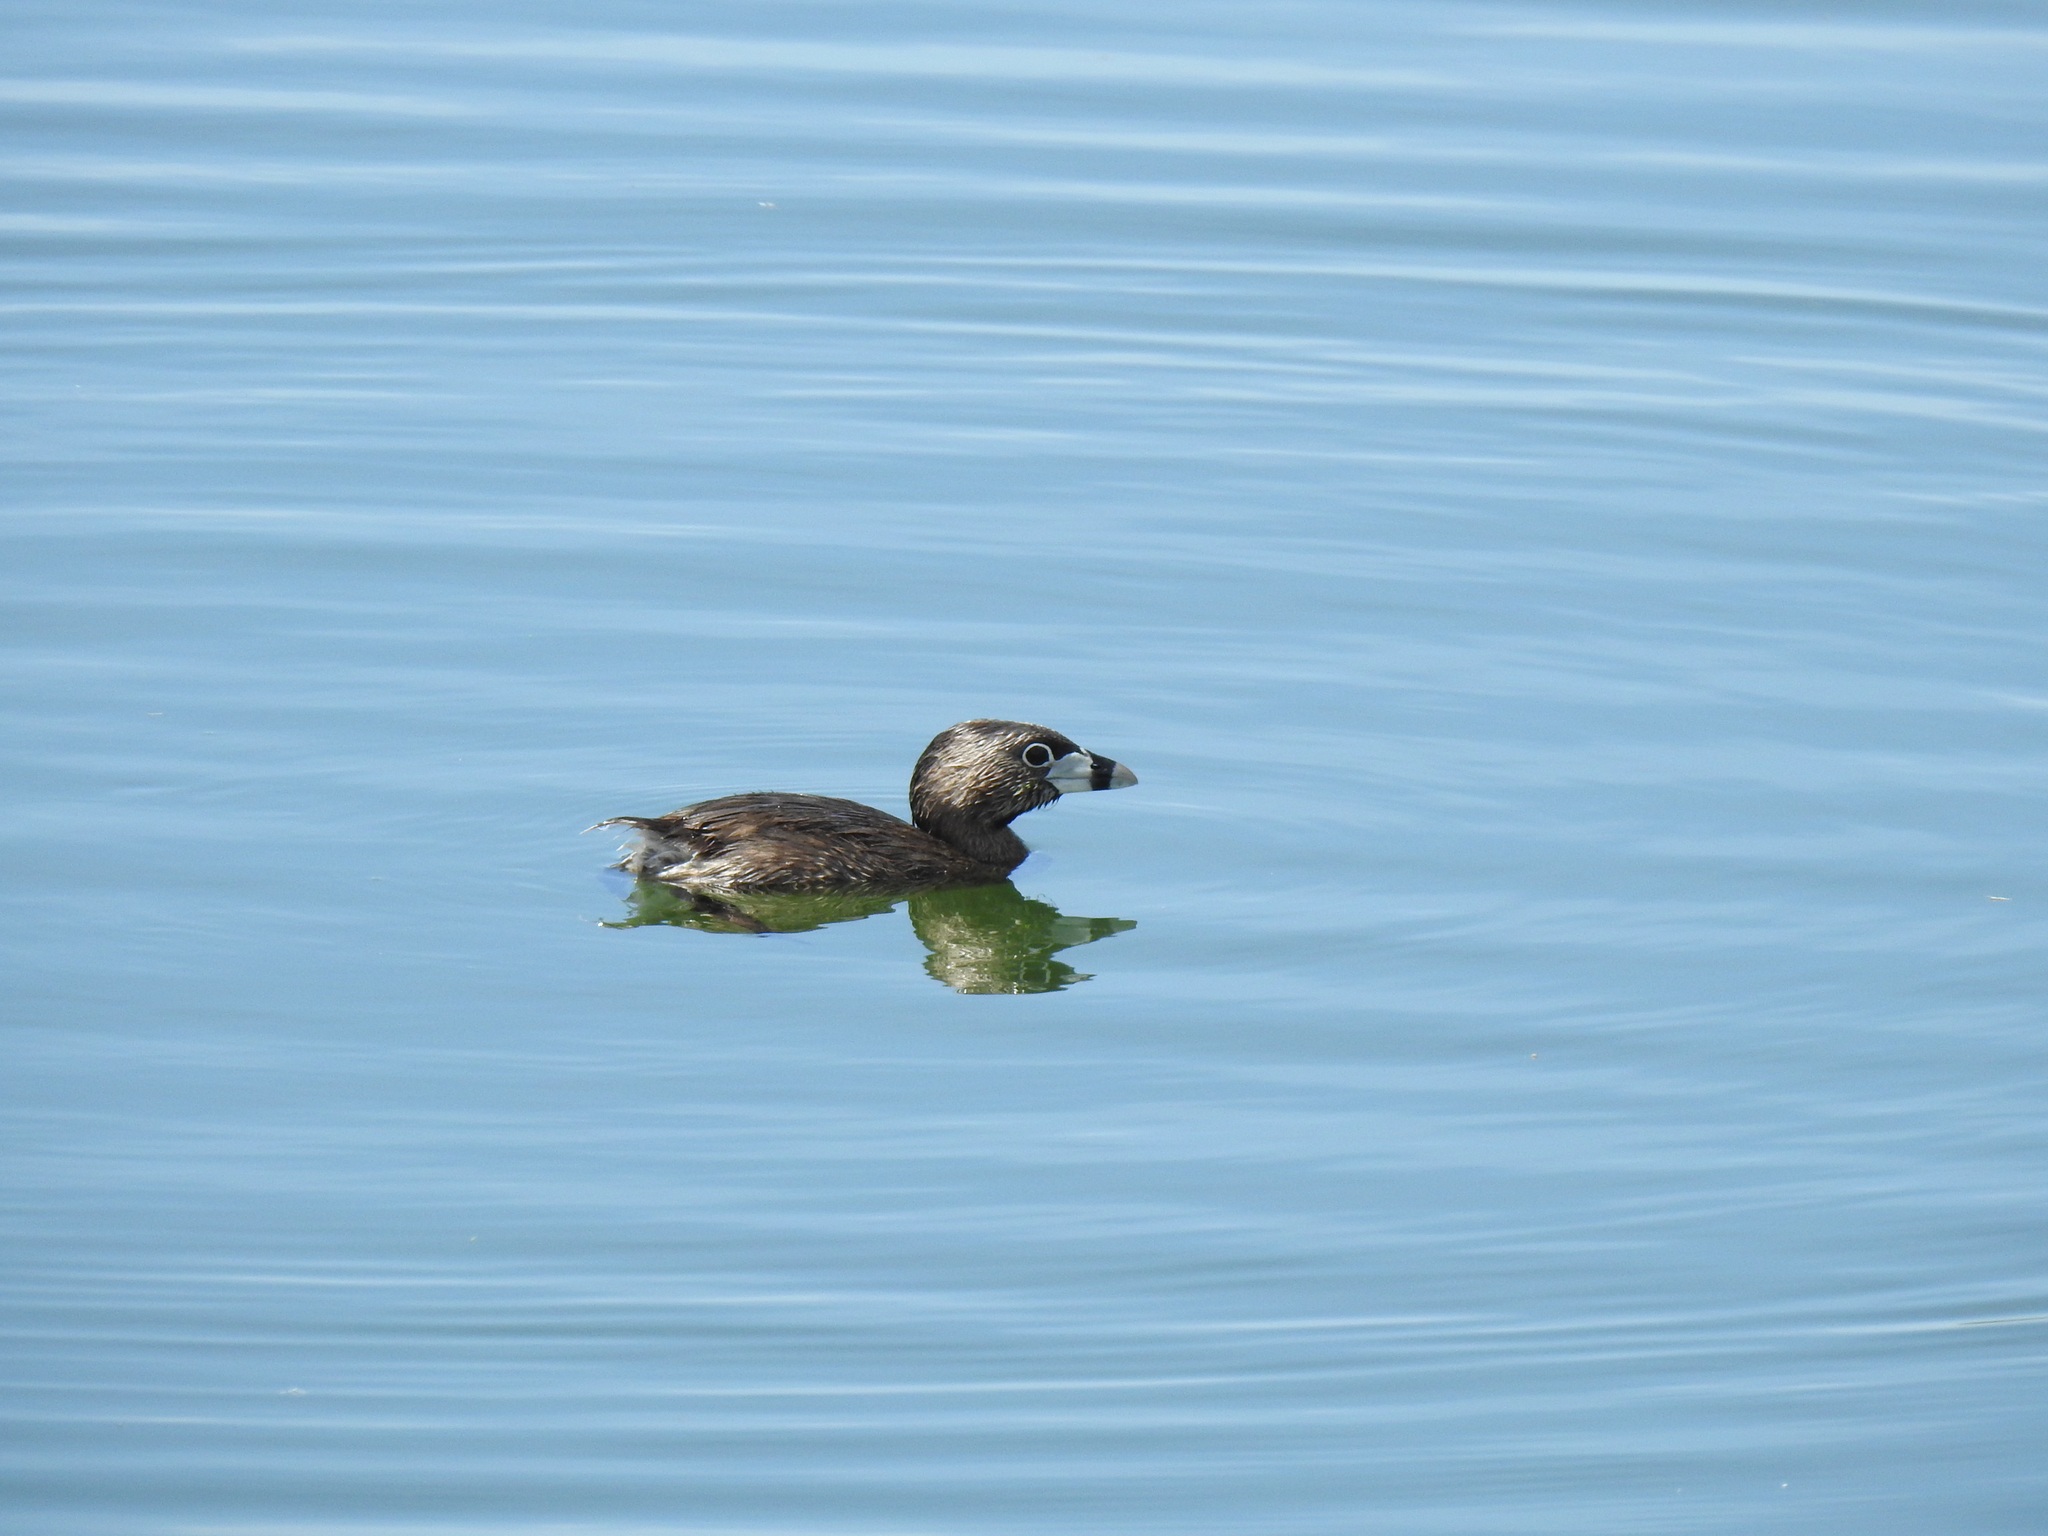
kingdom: Animalia
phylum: Chordata
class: Aves
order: Podicipediformes
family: Podicipedidae
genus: Podilymbus
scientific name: Podilymbus podiceps
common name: Pied-billed grebe
